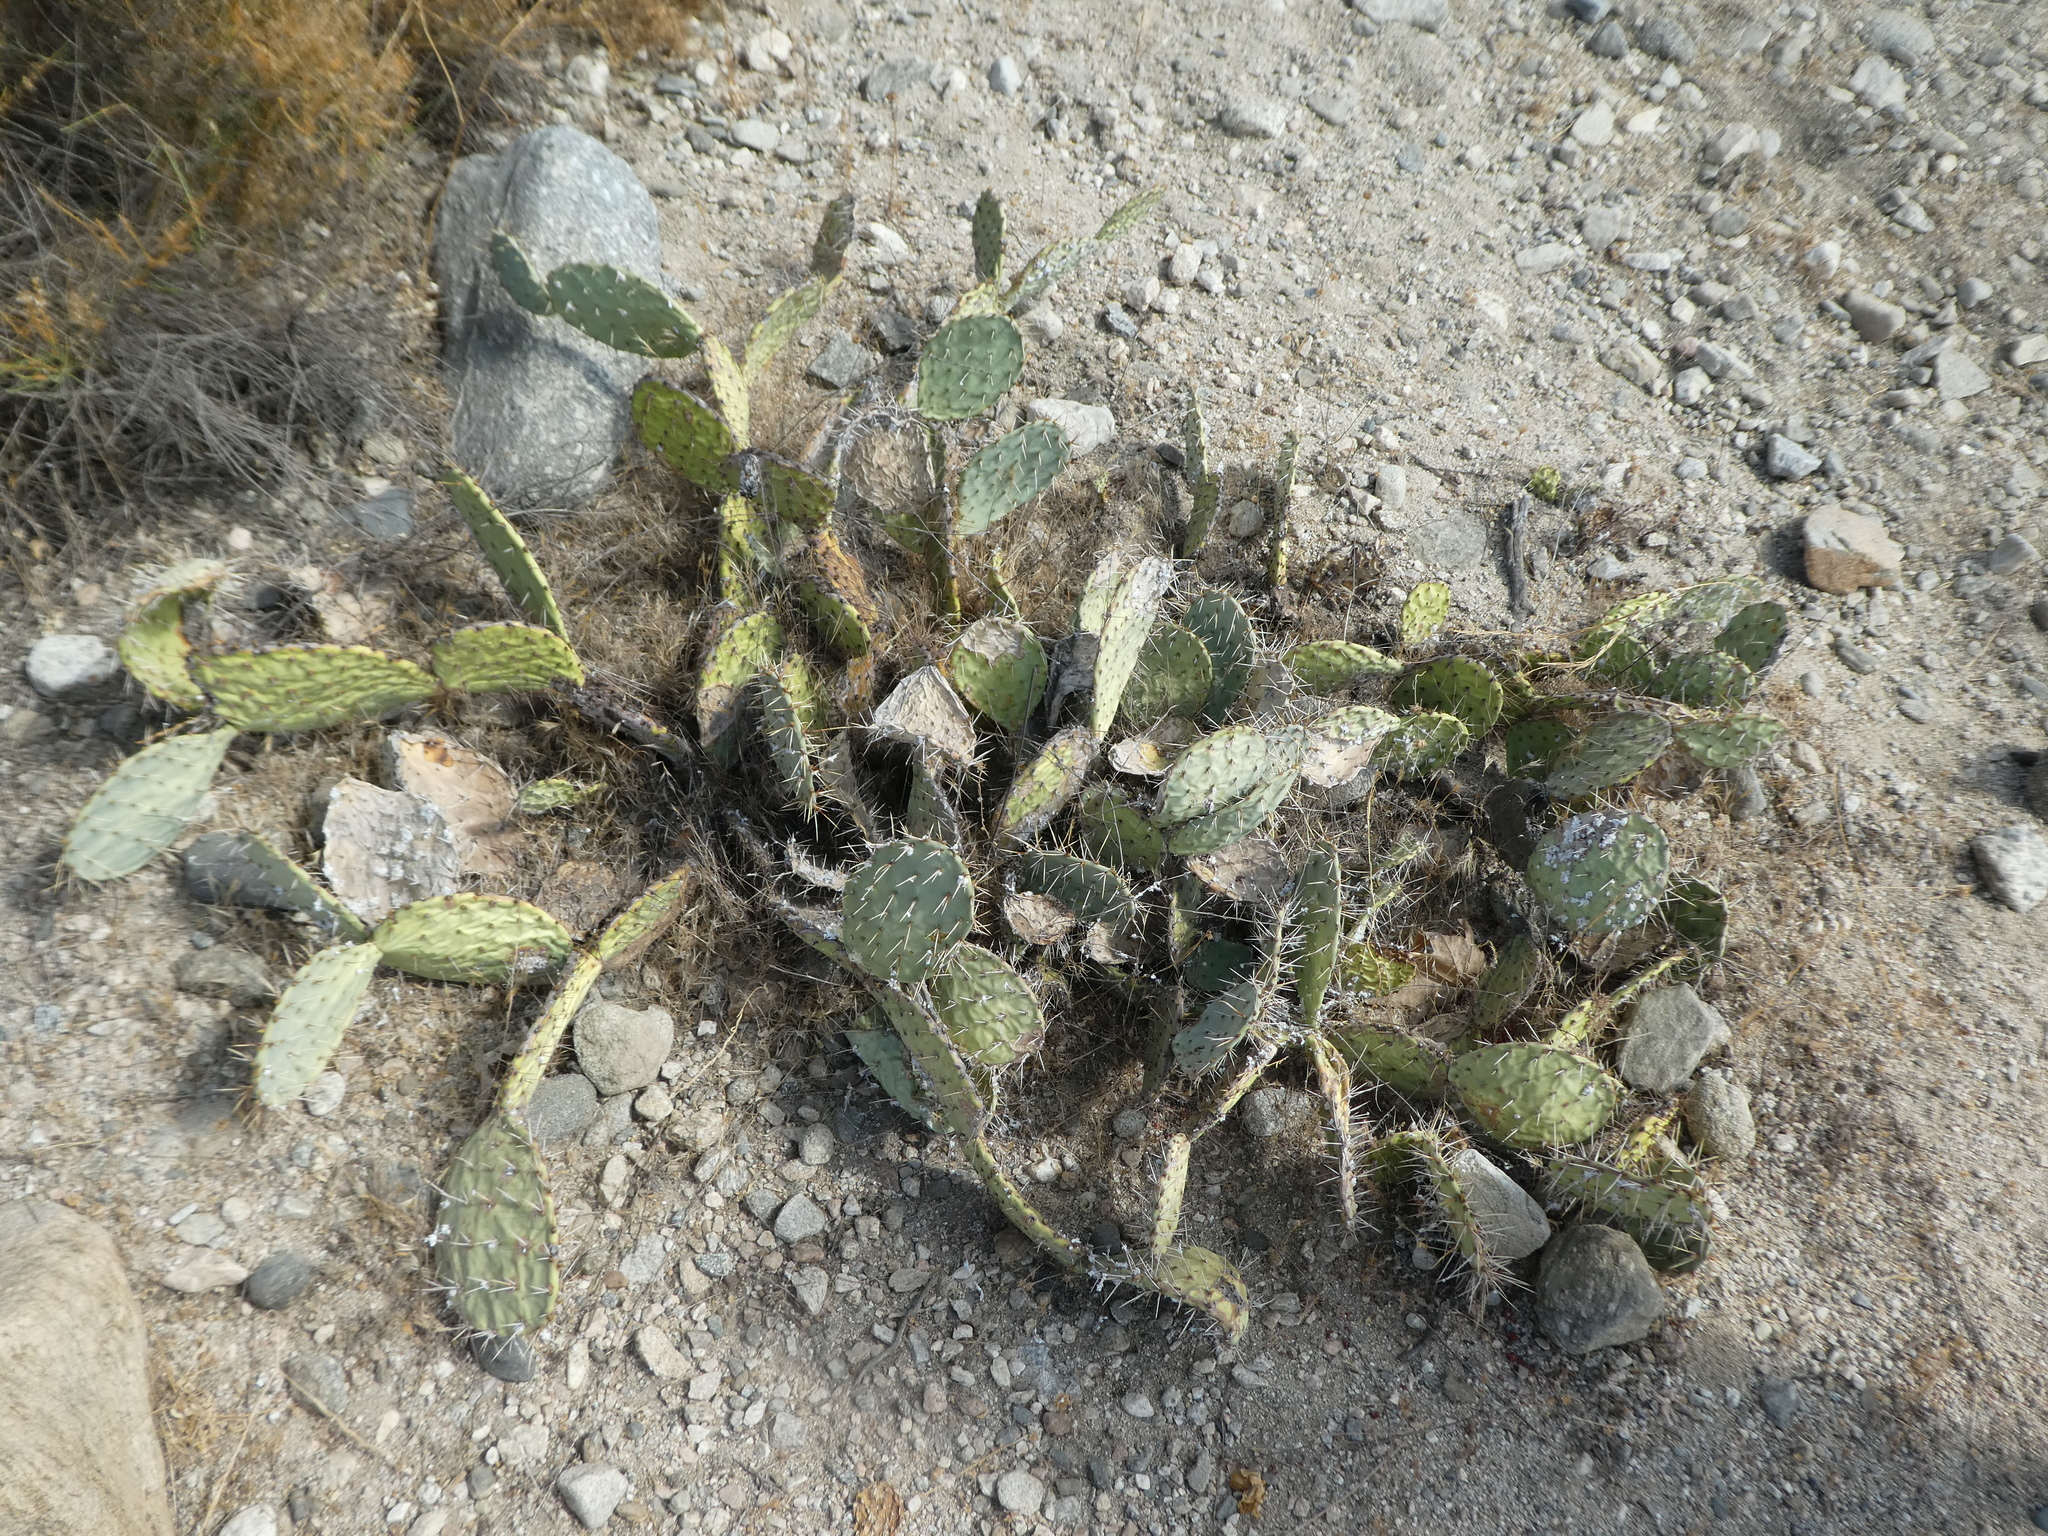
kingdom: Plantae
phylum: Tracheophyta
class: Magnoliopsida
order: Caryophyllales
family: Cactaceae
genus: Opuntia
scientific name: Opuntia littoralis
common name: Coastal prickly-pear
